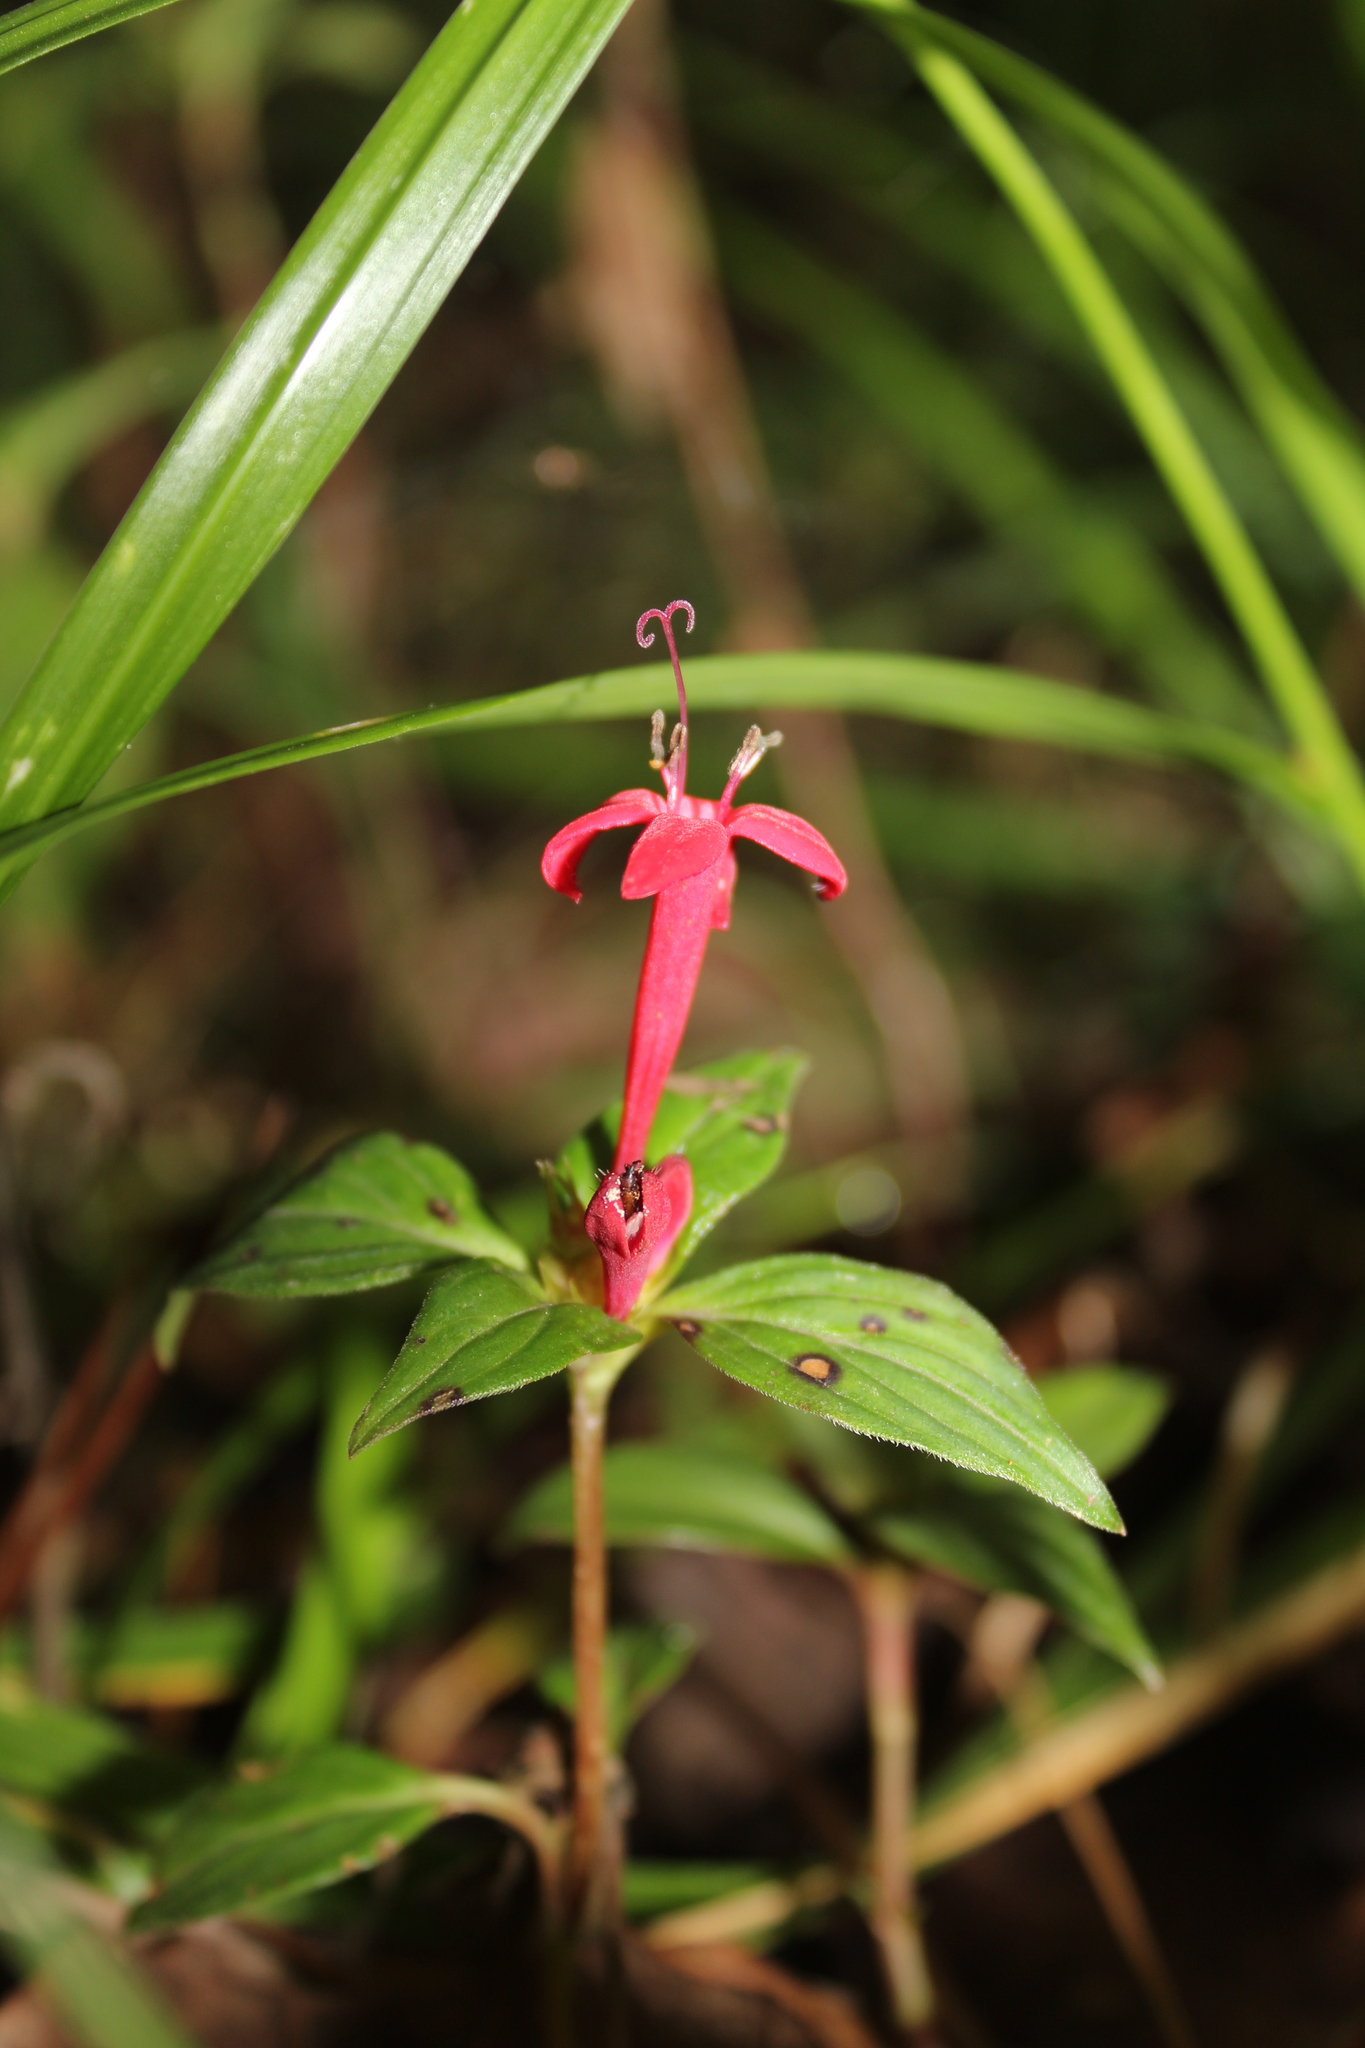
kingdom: Plantae
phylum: Tracheophyta
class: Magnoliopsida
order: Gentianales
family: Rubiaceae
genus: Crusea
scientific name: Crusea coccinea
